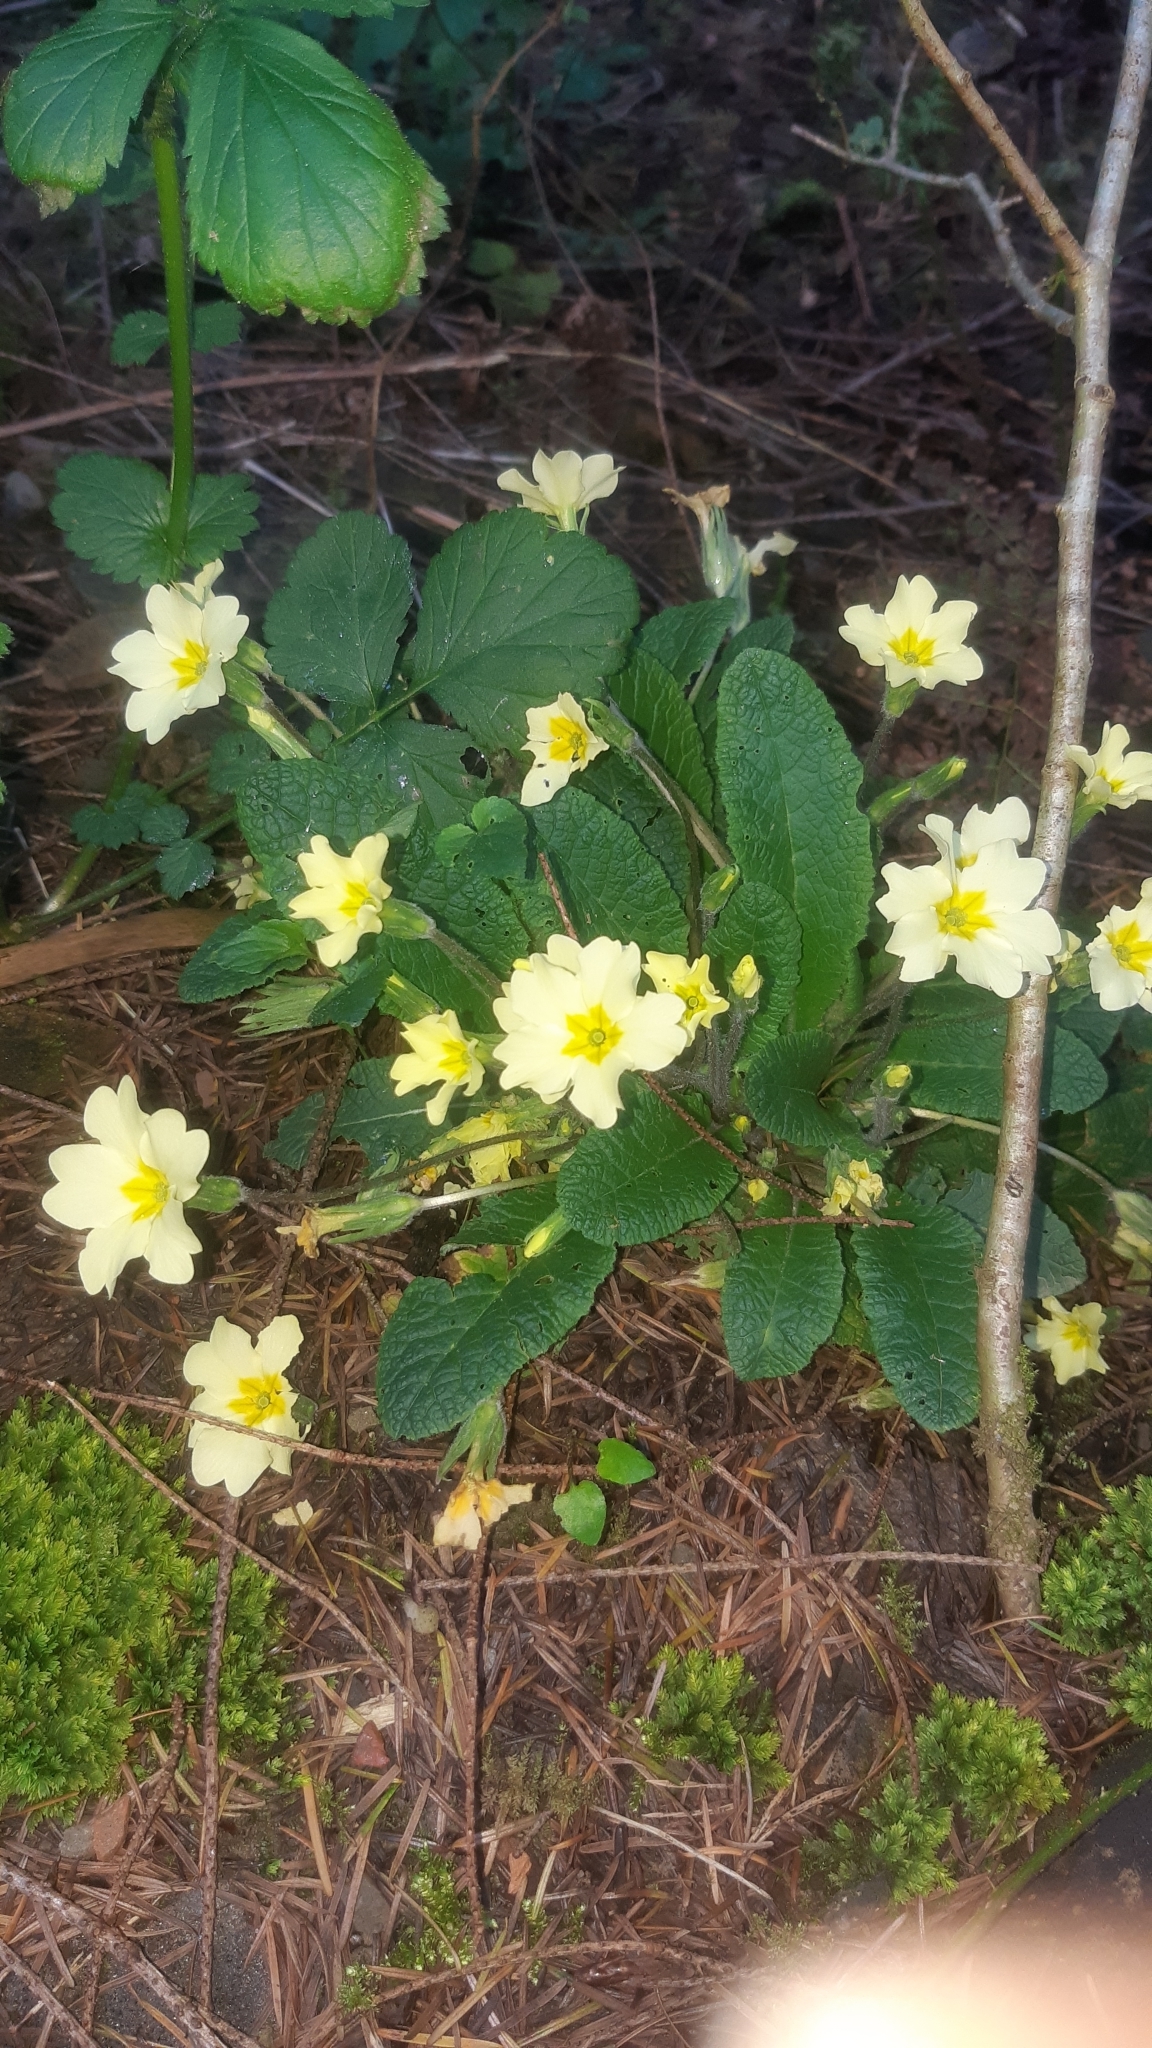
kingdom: Plantae
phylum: Tracheophyta
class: Magnoliopsida
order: Ericales
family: Primulaceae
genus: Primula
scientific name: Primula vulgaris
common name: Primrose
